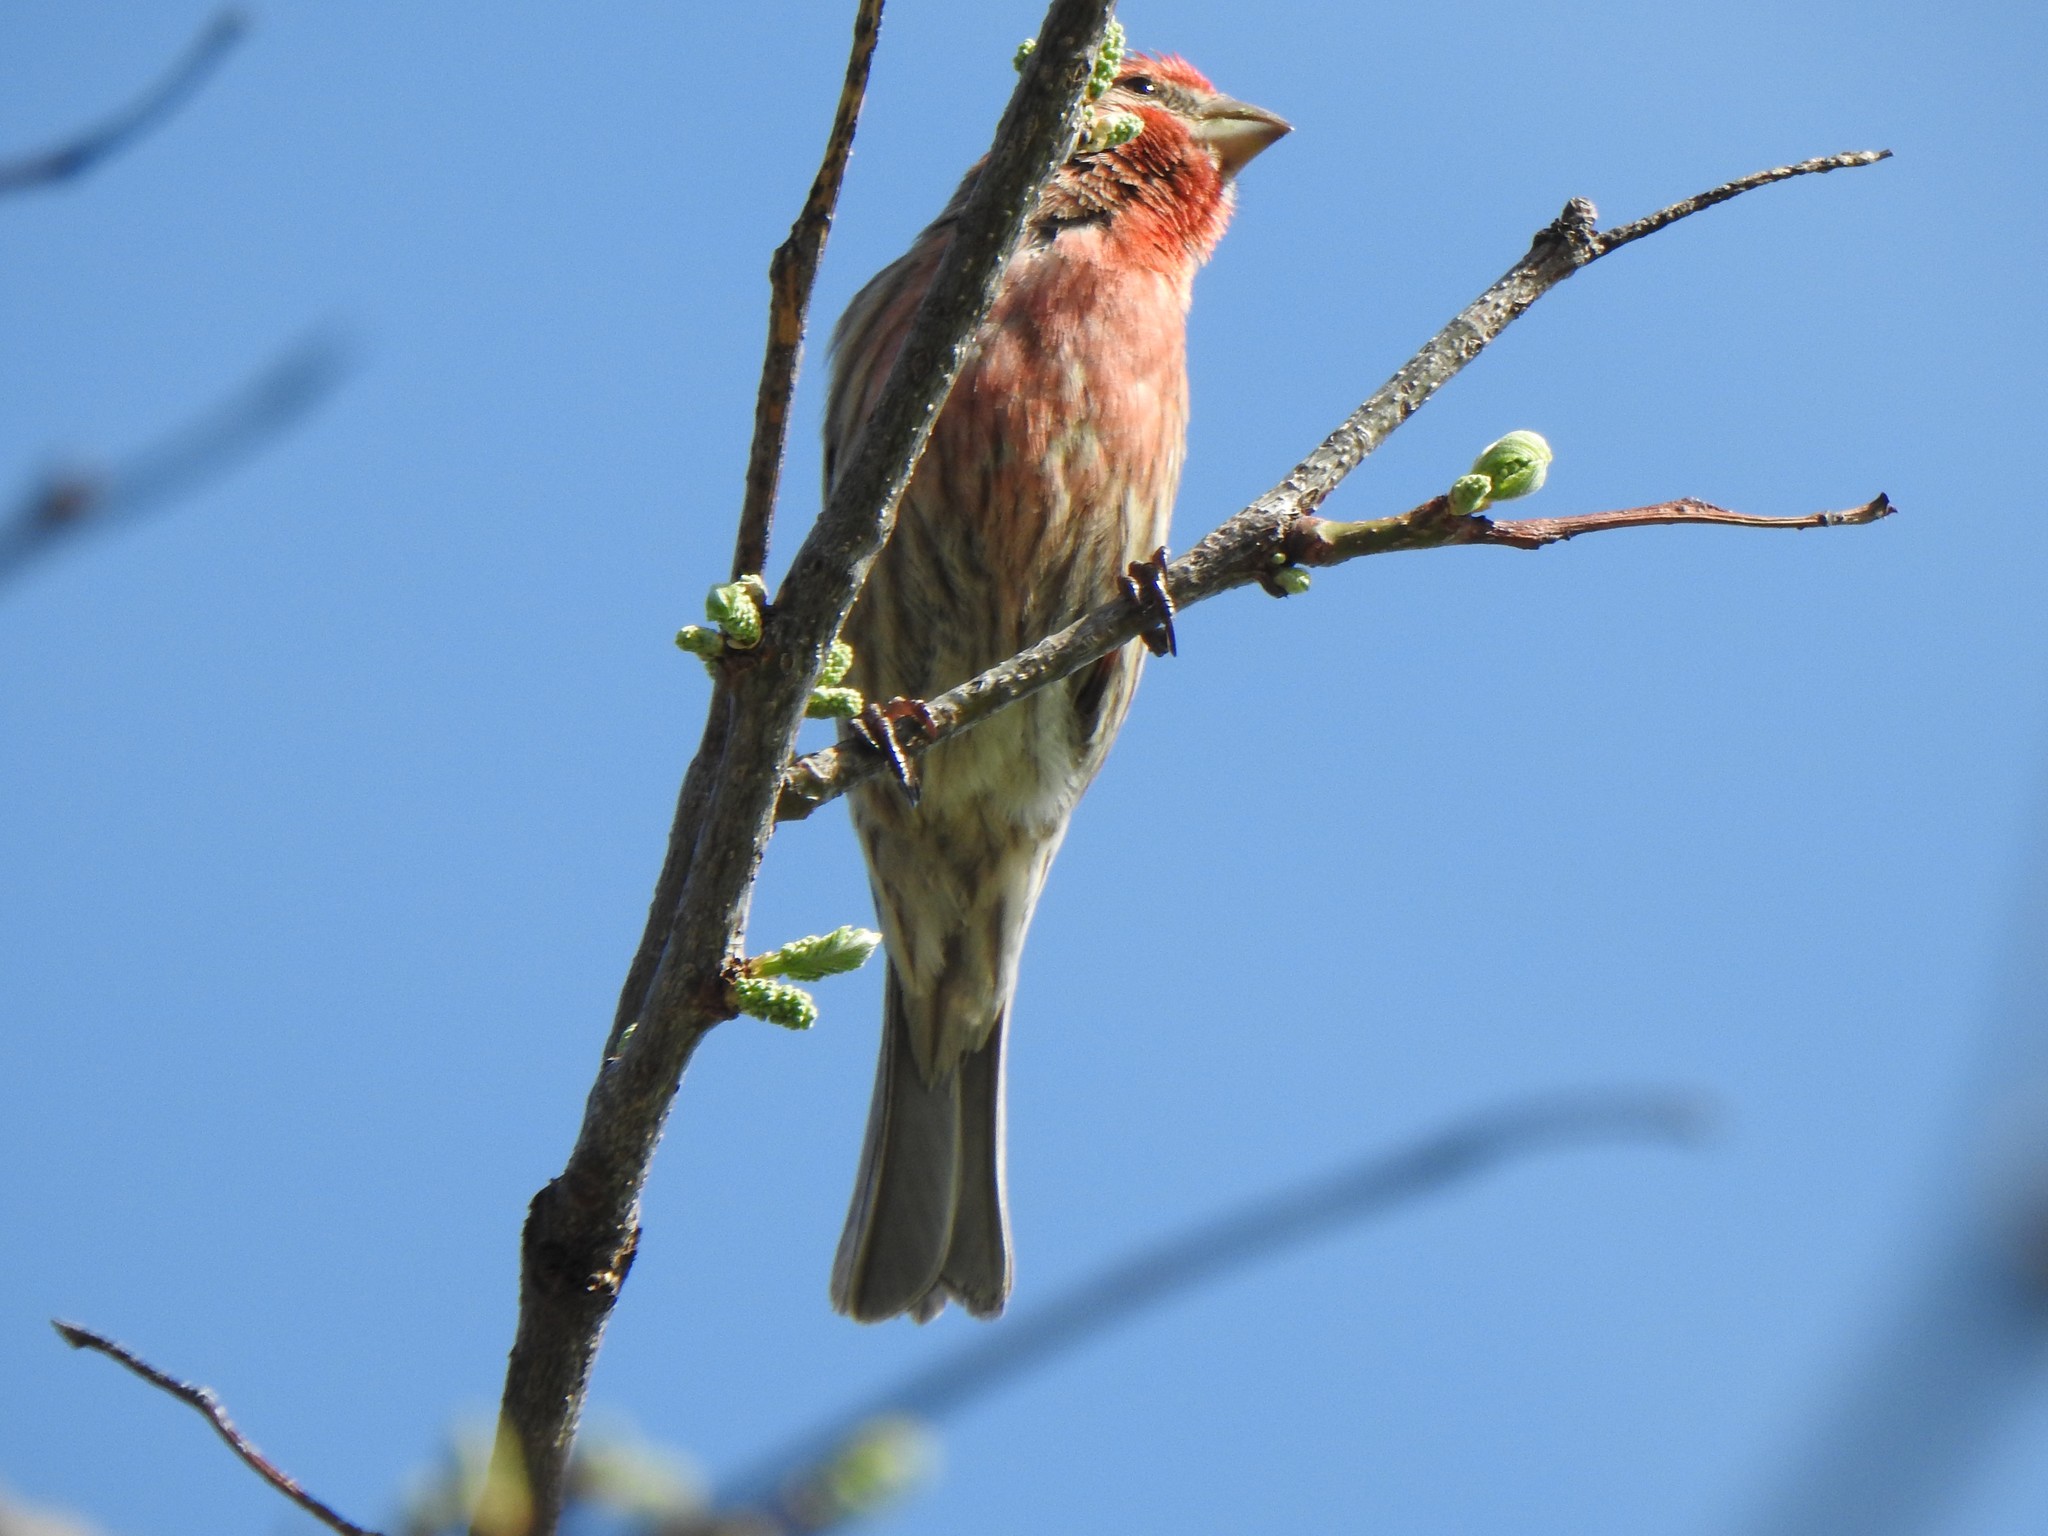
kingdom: Animalia
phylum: Chordata
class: Aves
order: Passeriformes
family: Fringillidae
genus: Haemorhous
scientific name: Haemorhous mexicanus
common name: House finch
